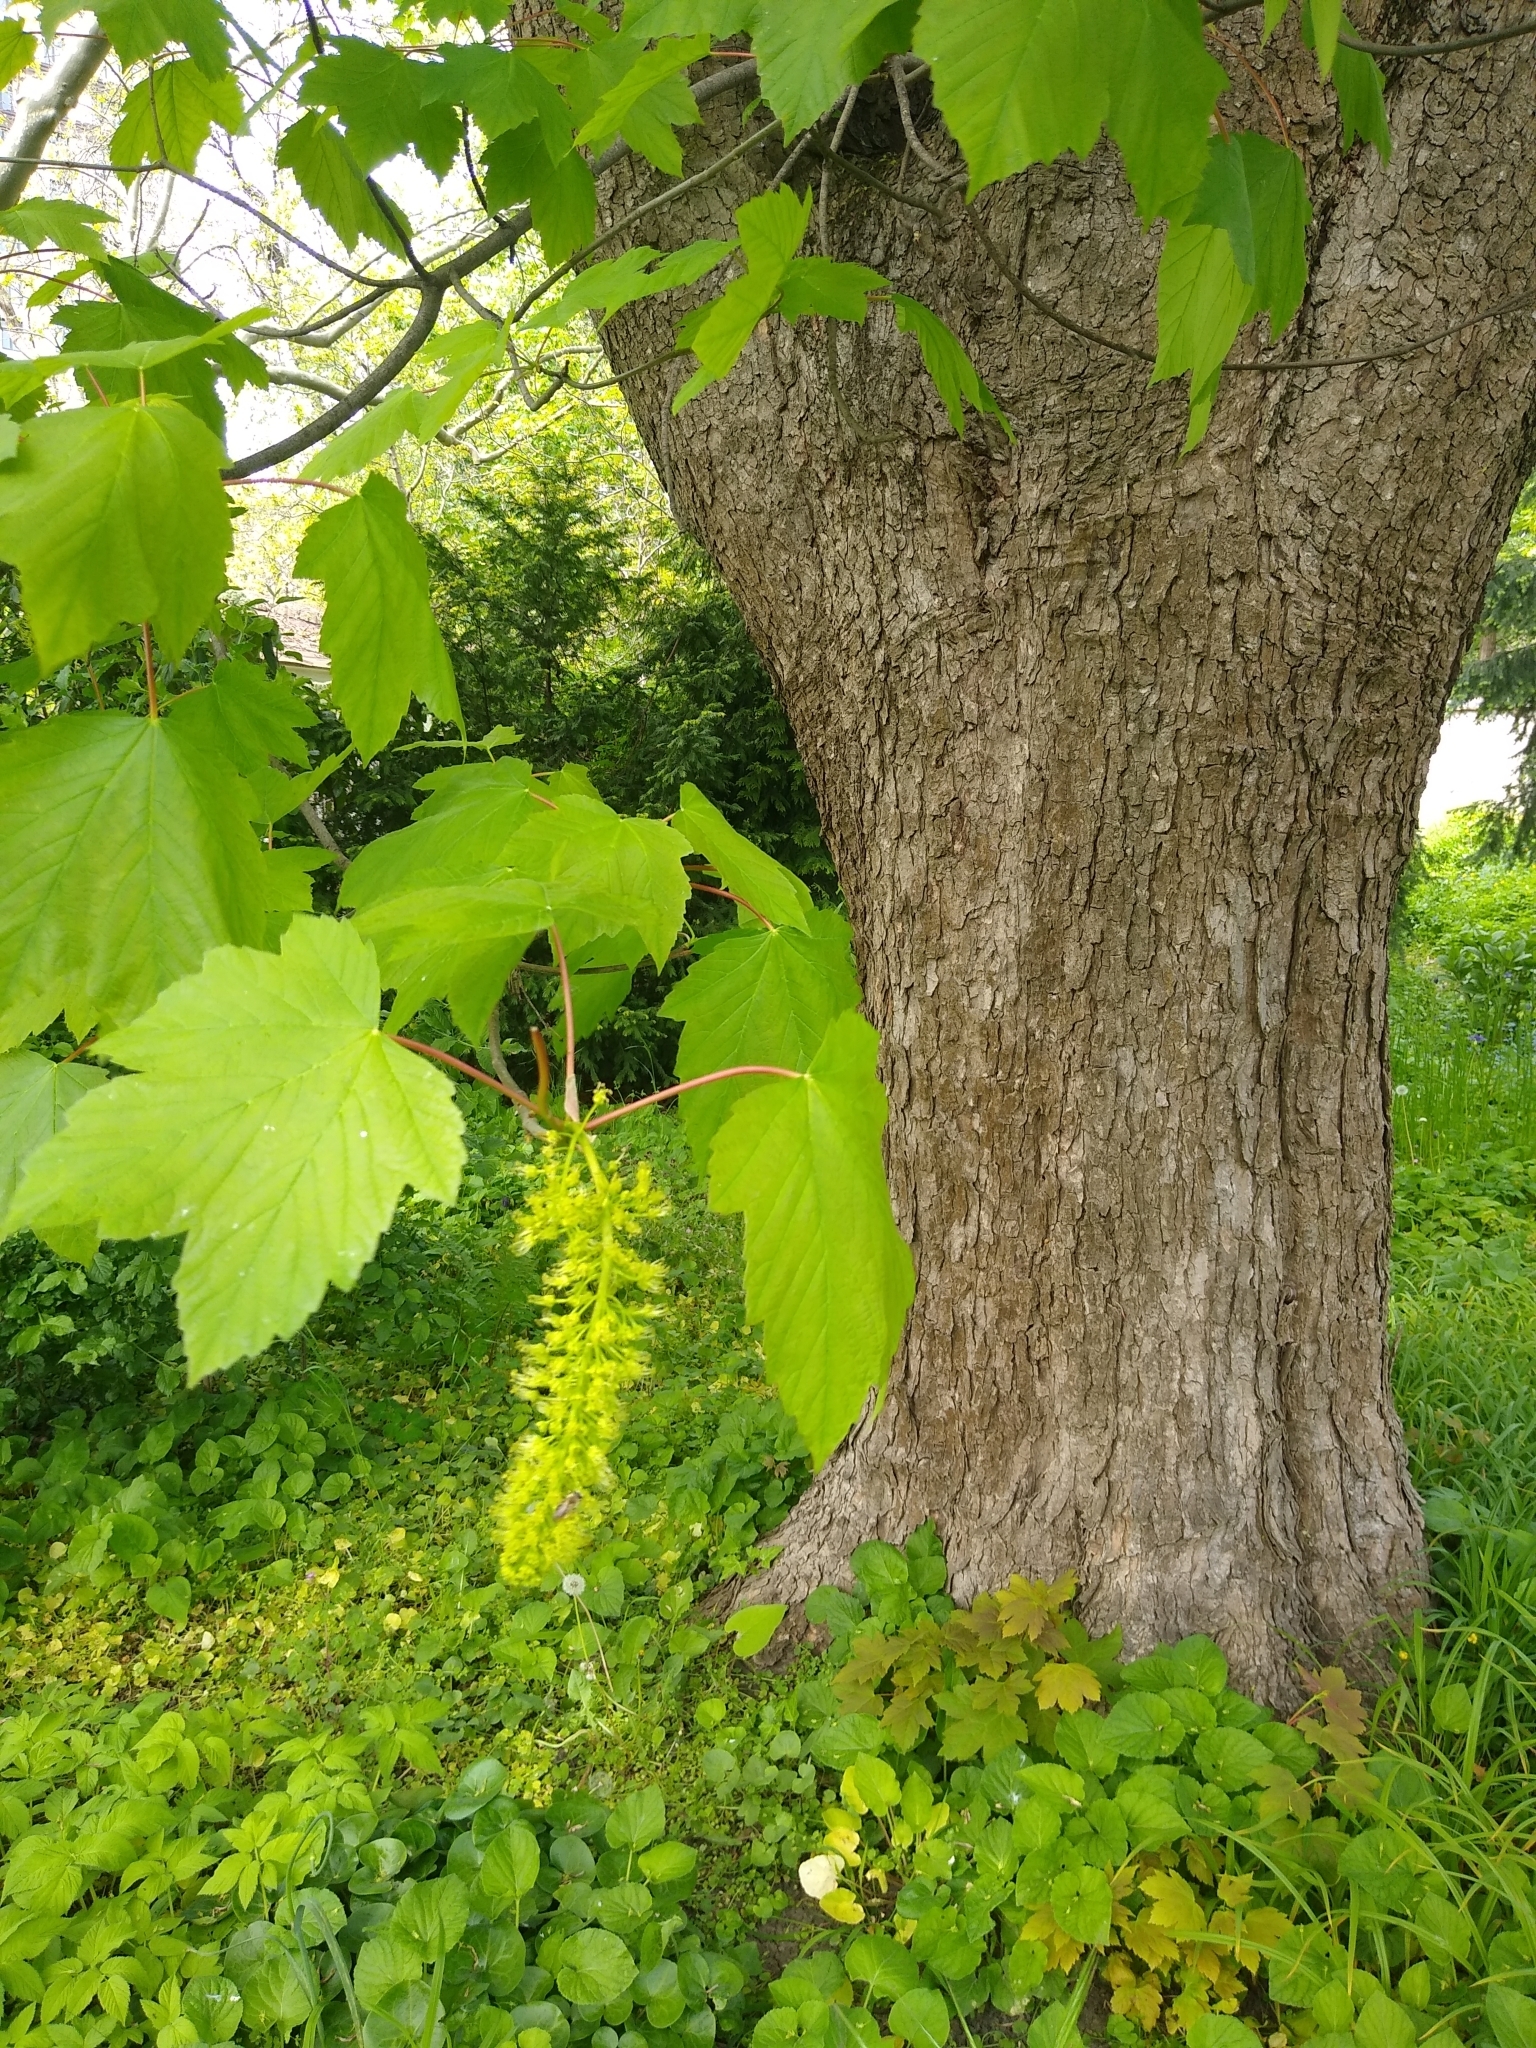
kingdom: Plantae
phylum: Tracheophyta
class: Magnoliopsida
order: Sapindales
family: Sapindaceae
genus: Acer
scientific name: Acer pseudoplatanus
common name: Sycamore
